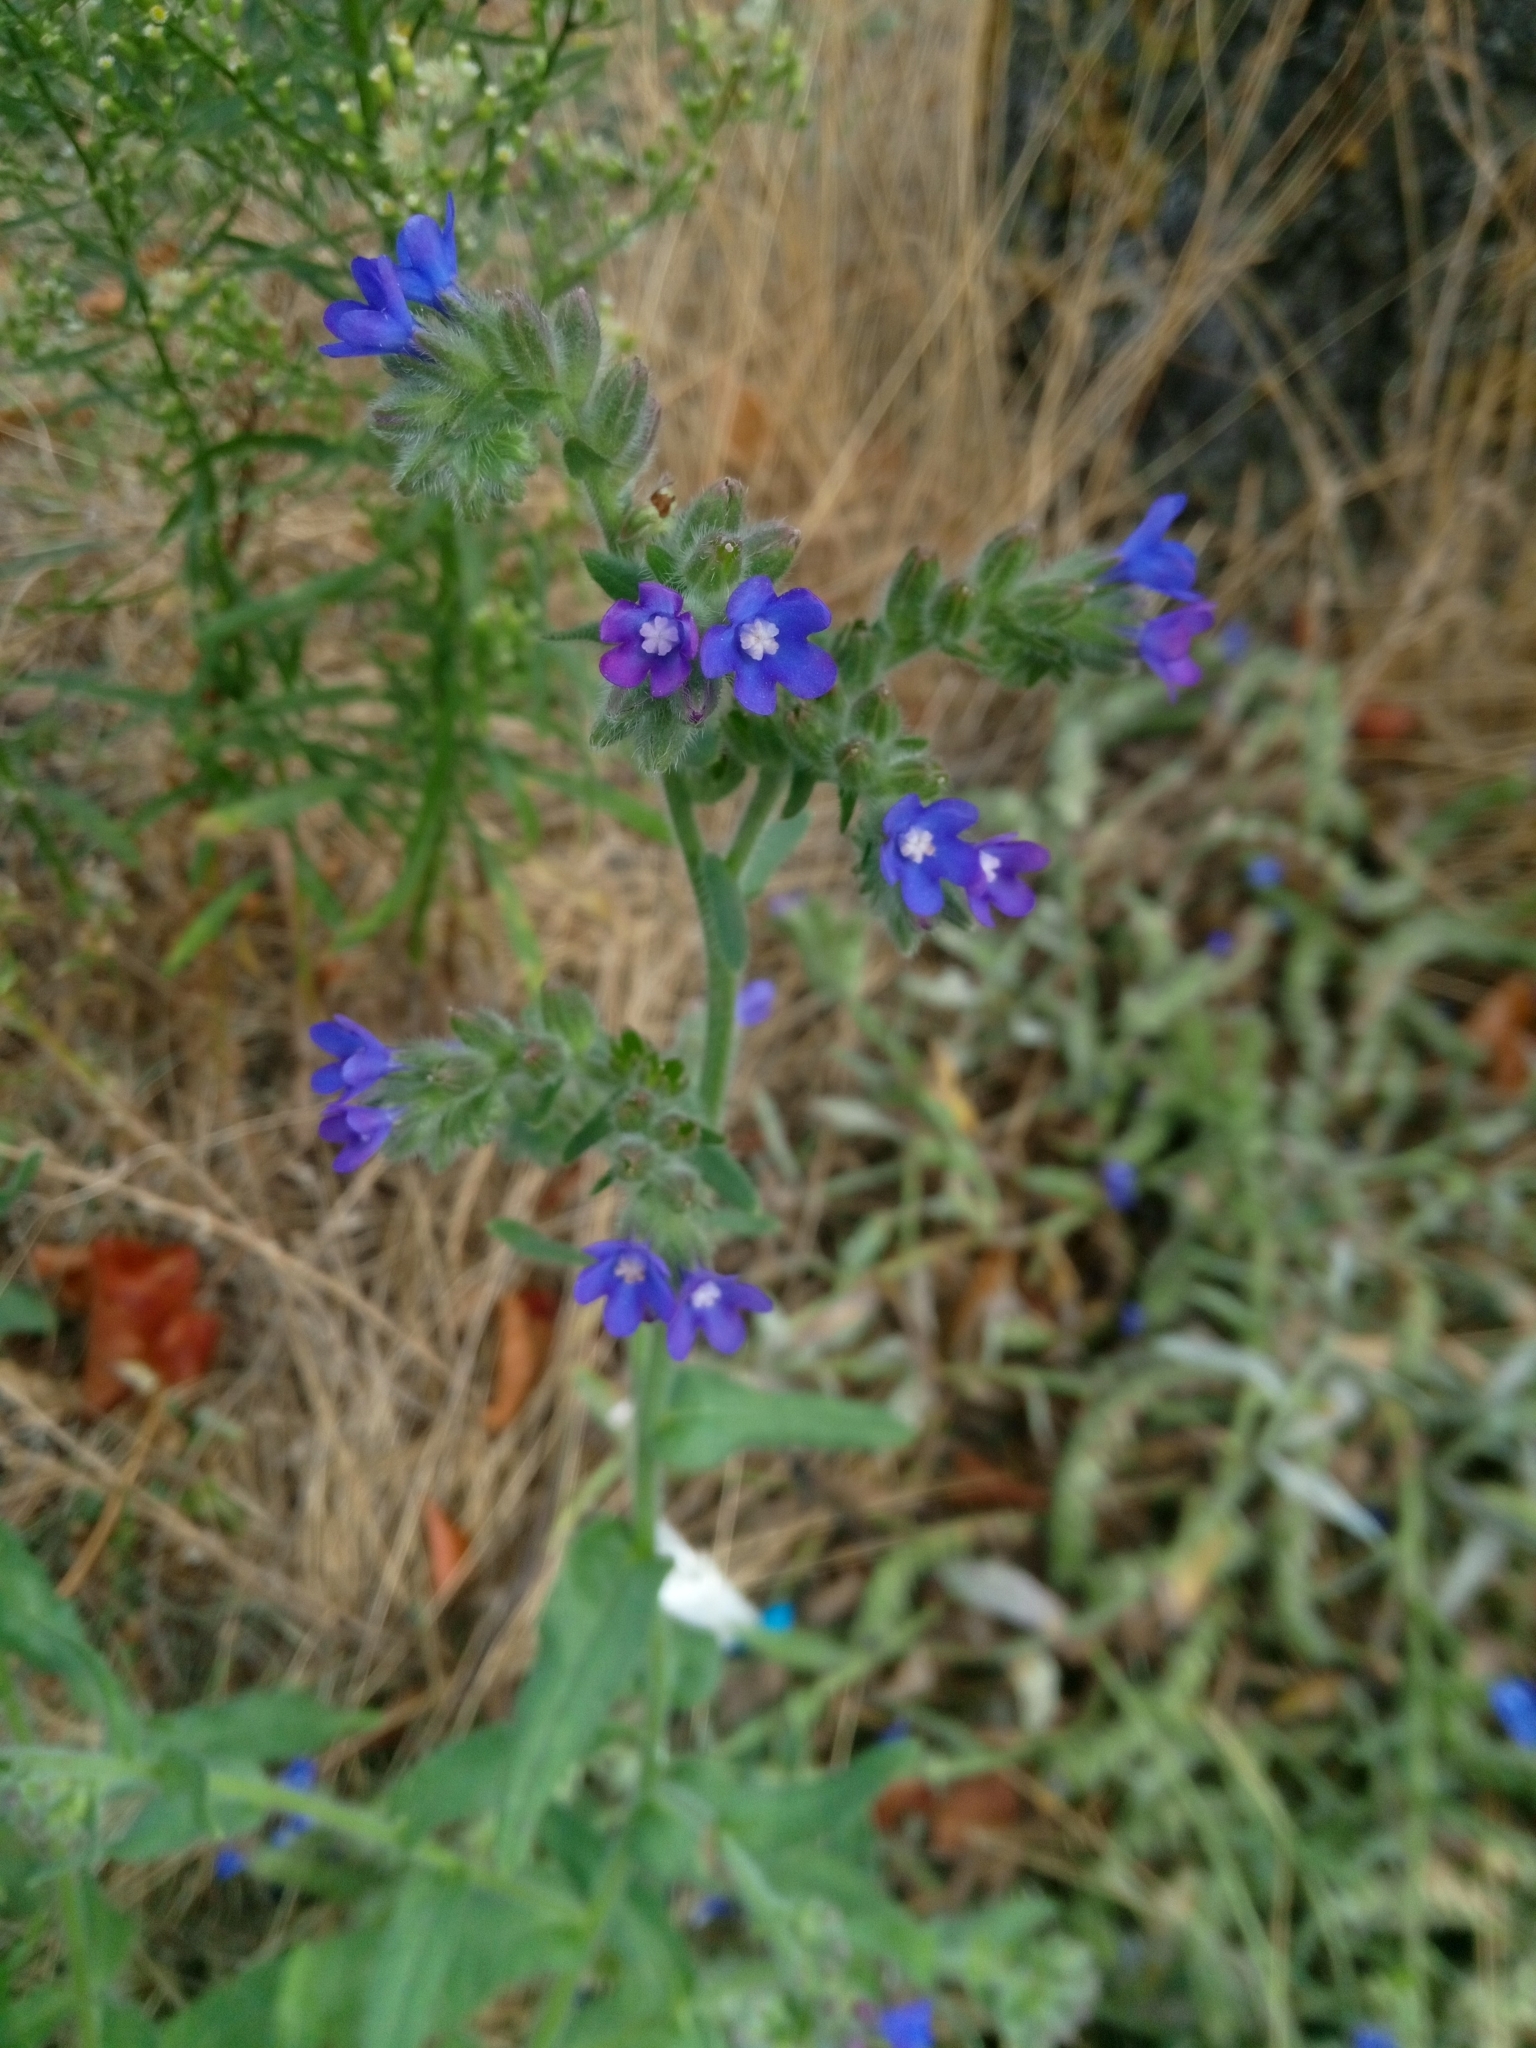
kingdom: Plantae
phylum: Tracheophyta
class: Magnoliopsida
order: Boraginales
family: Boraginaceae
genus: Anchusa
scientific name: Anchusa officinalis
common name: Alkanet
